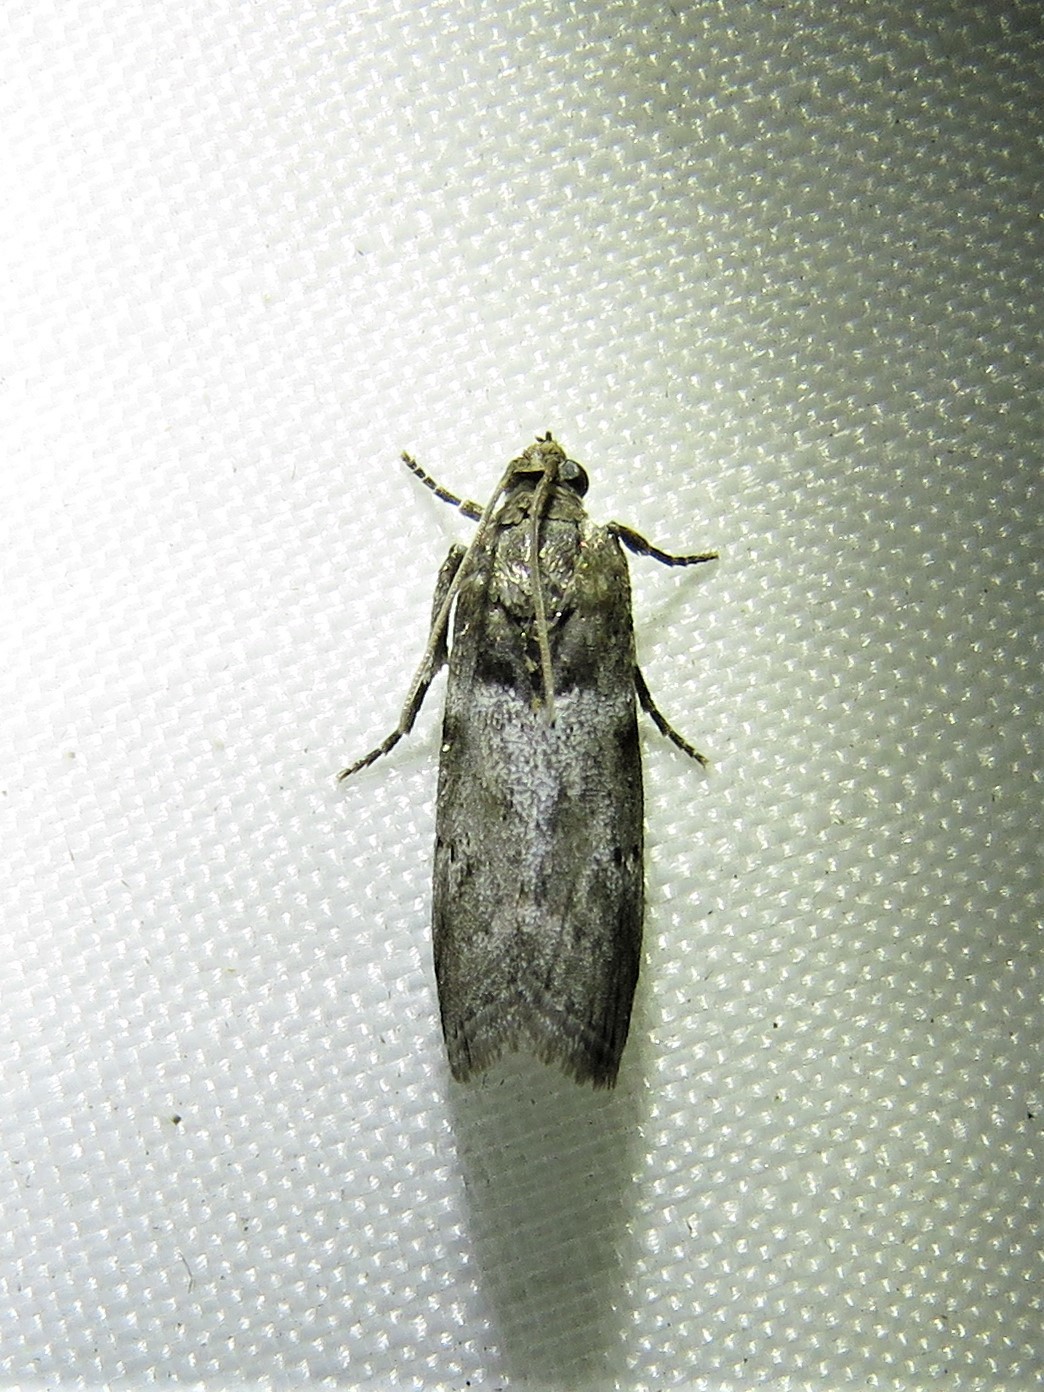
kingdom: Animalia
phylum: Arthropoda
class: Insecta
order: Lepidoptera
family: Pyralidae
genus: Salebriaria
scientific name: Salebriaria annulosella
